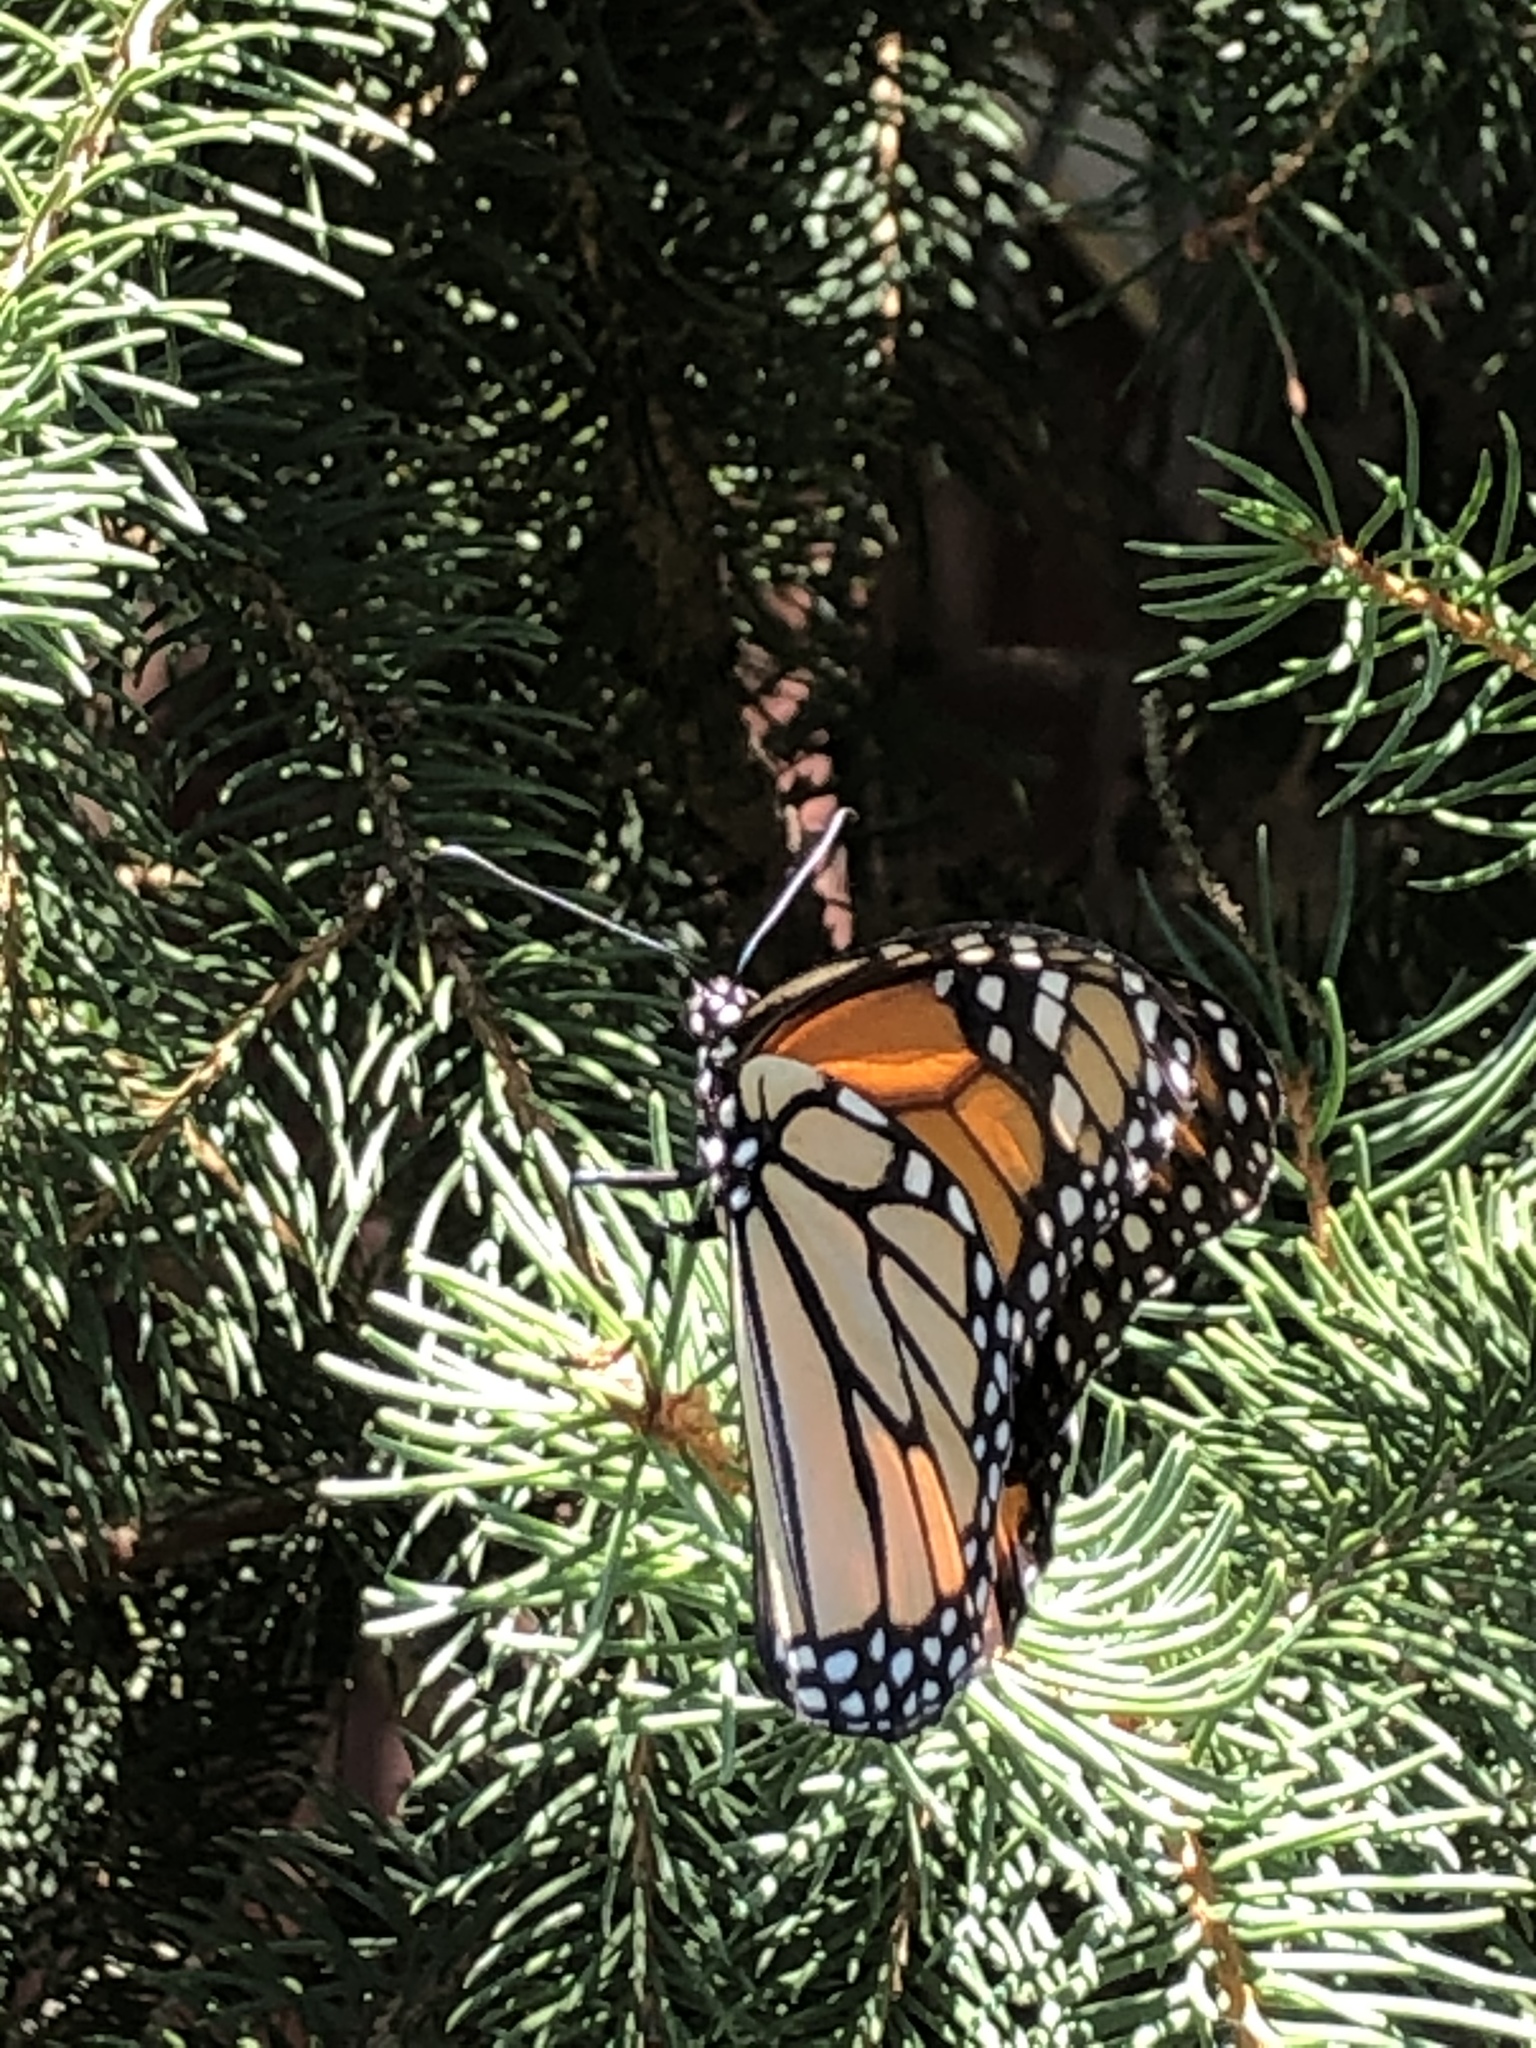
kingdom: Animalia
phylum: Arthropoda
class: Insecta
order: Lepidoptera
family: Nymphalidae
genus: Danaus
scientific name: Danaus plexippus
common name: Monarch
